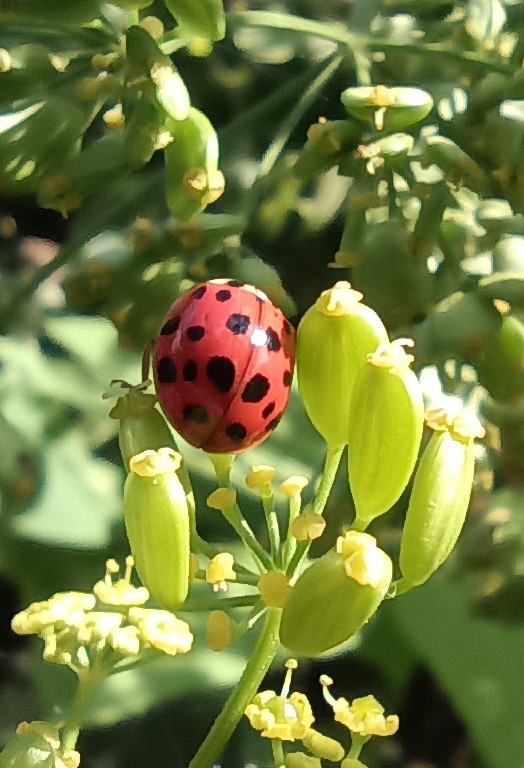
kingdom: Animalia
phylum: Arthropoda
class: Insecta
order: Coleoptera
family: Coccinellidae
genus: Harmonia
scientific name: Harmonia axyridis
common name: Harlequin ladybird
